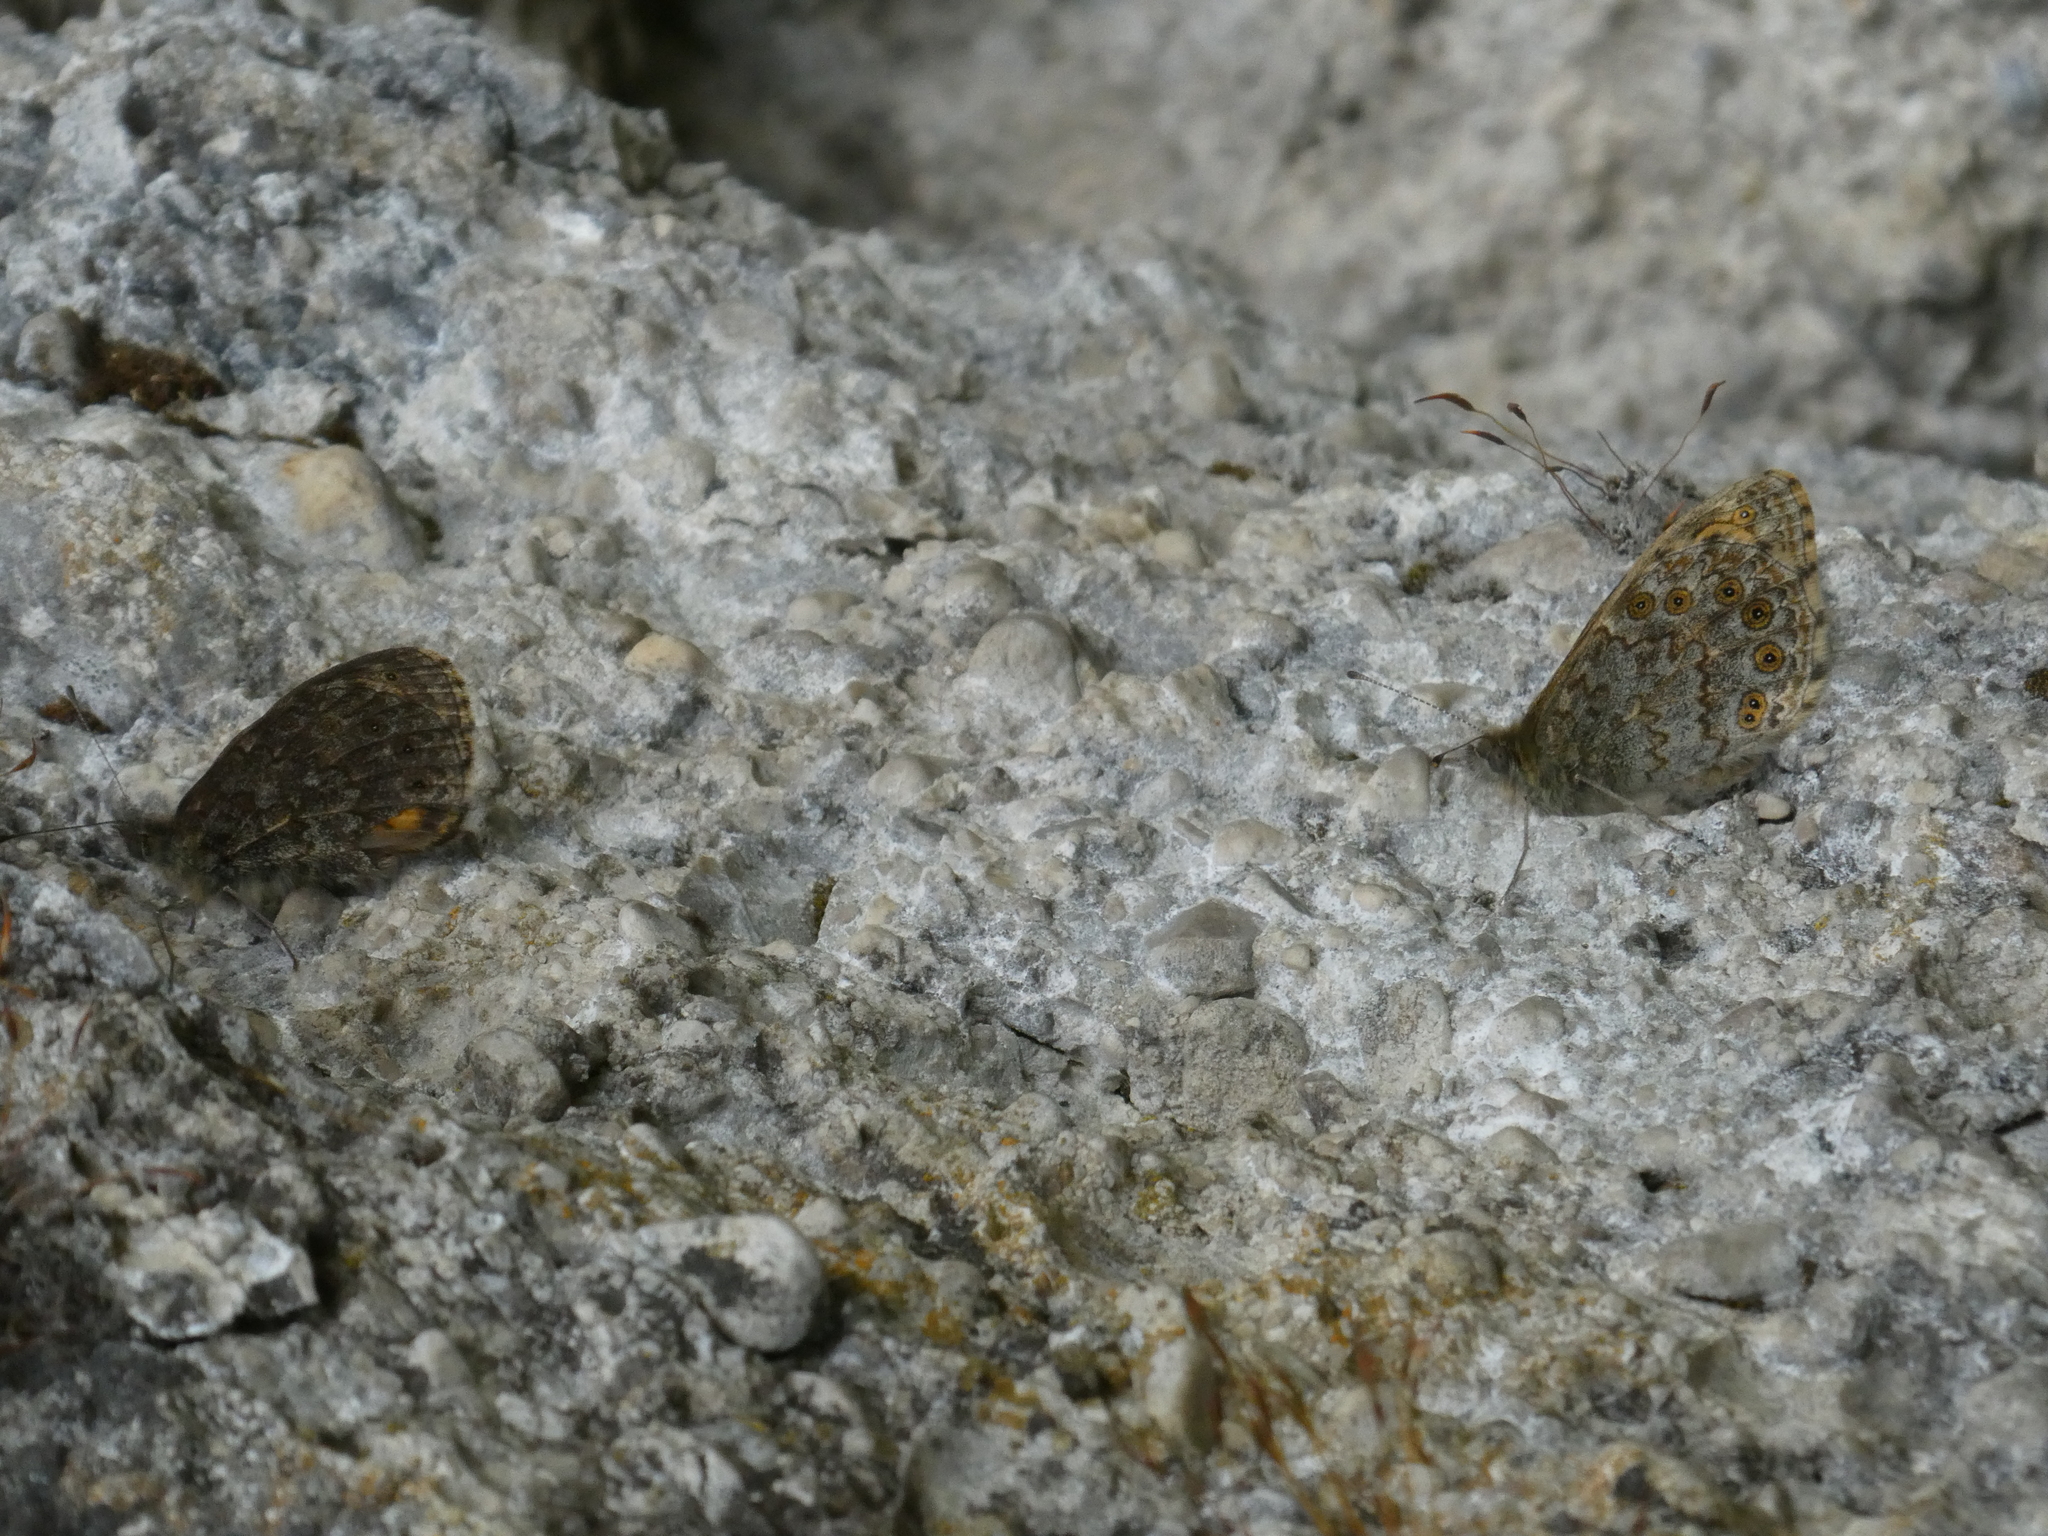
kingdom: Animalia
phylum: Arthropoda
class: Insecta
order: Lepidoptera
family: Nymphalidae
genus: Pararge
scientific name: Pararge Lasiommata megera
